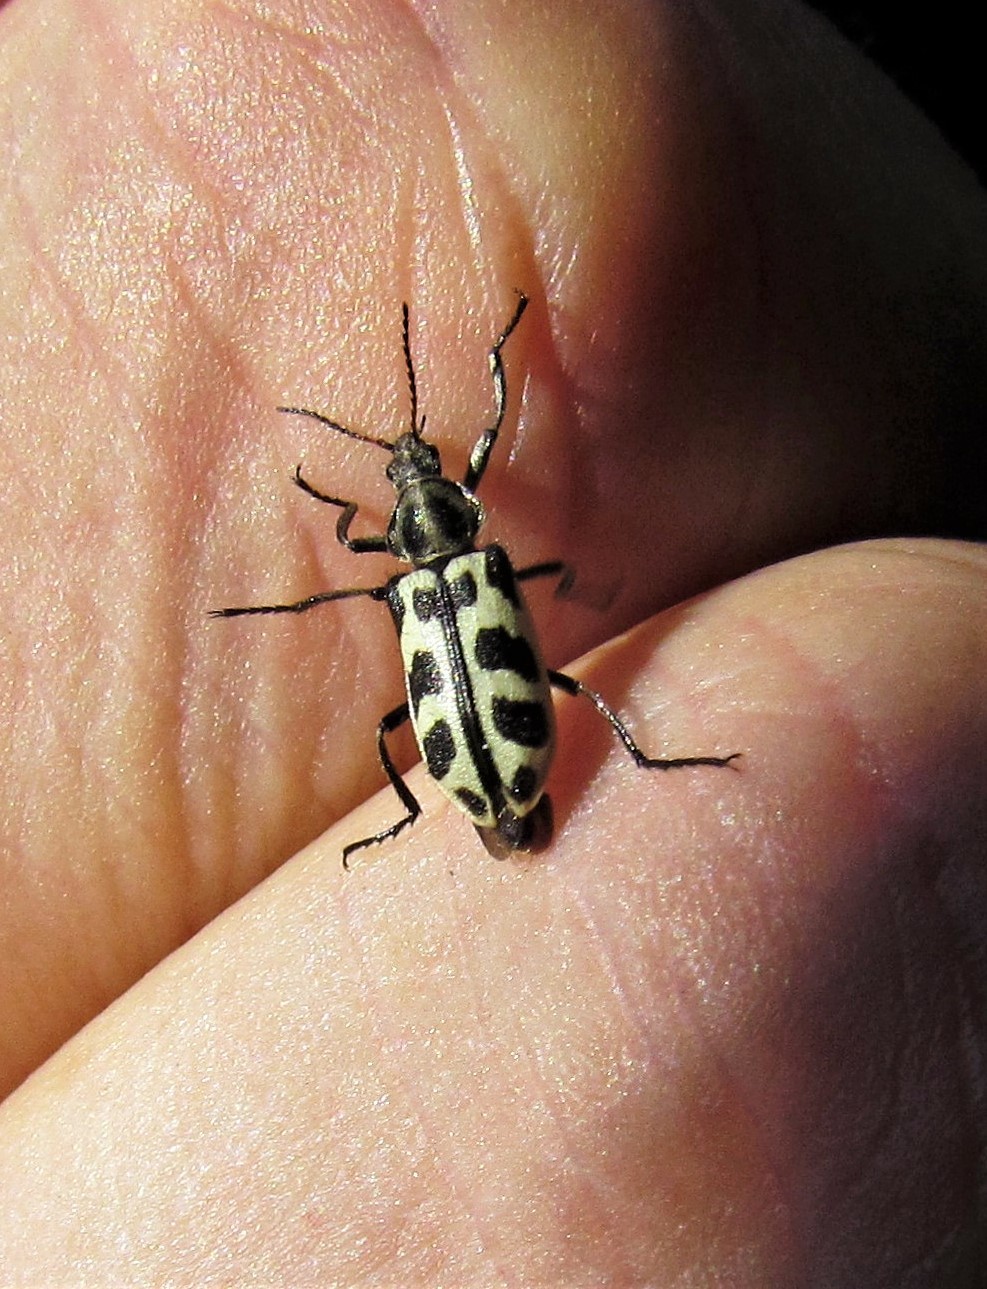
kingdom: Animalia
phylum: Arthropoda
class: Insecta
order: Coleoptera
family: Melyridae
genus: Astylus
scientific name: Astylus atromaculatus
